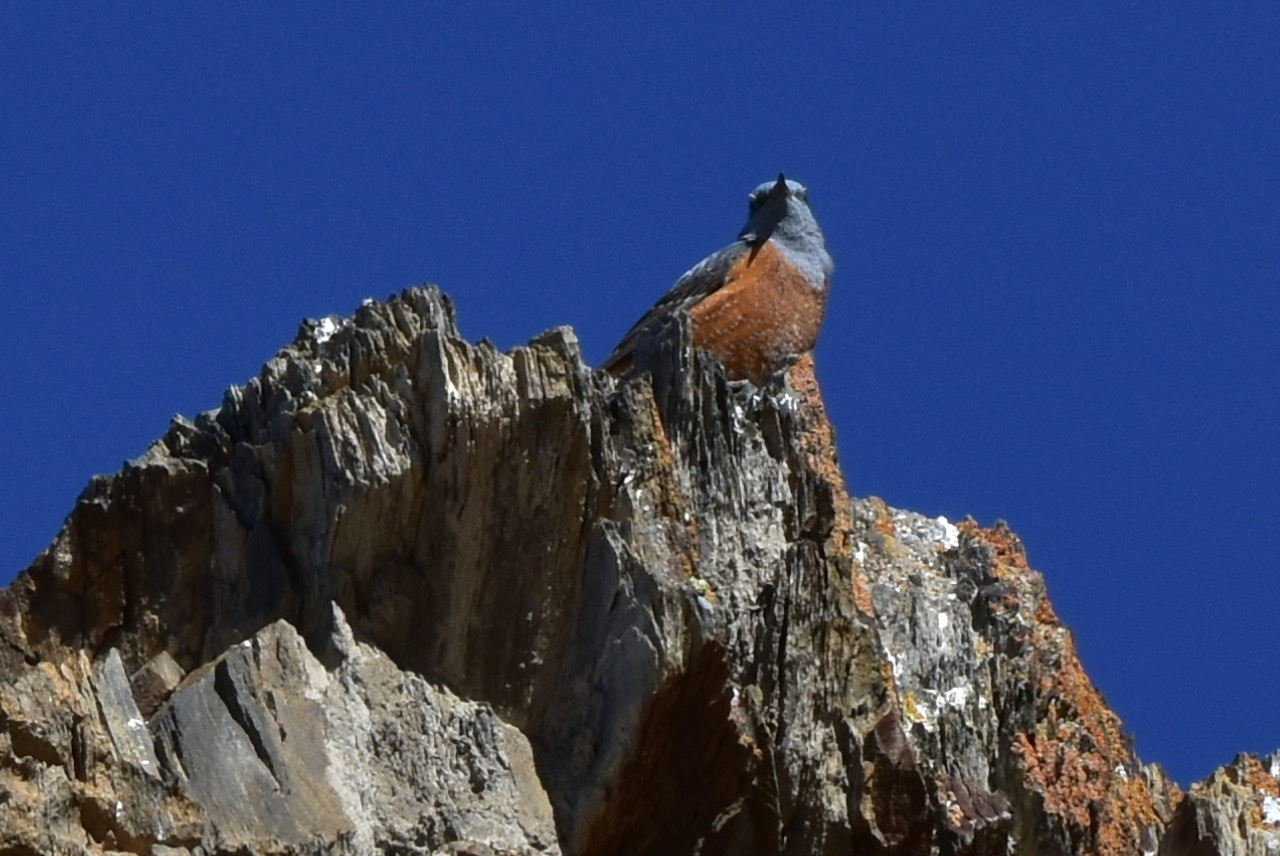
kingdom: Animalia
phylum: Chordata
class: Aves
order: Passeriformes
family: Muscicapidae
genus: Monticola
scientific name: Monticola saxatilis
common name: Rufous-tailed rock thrush
